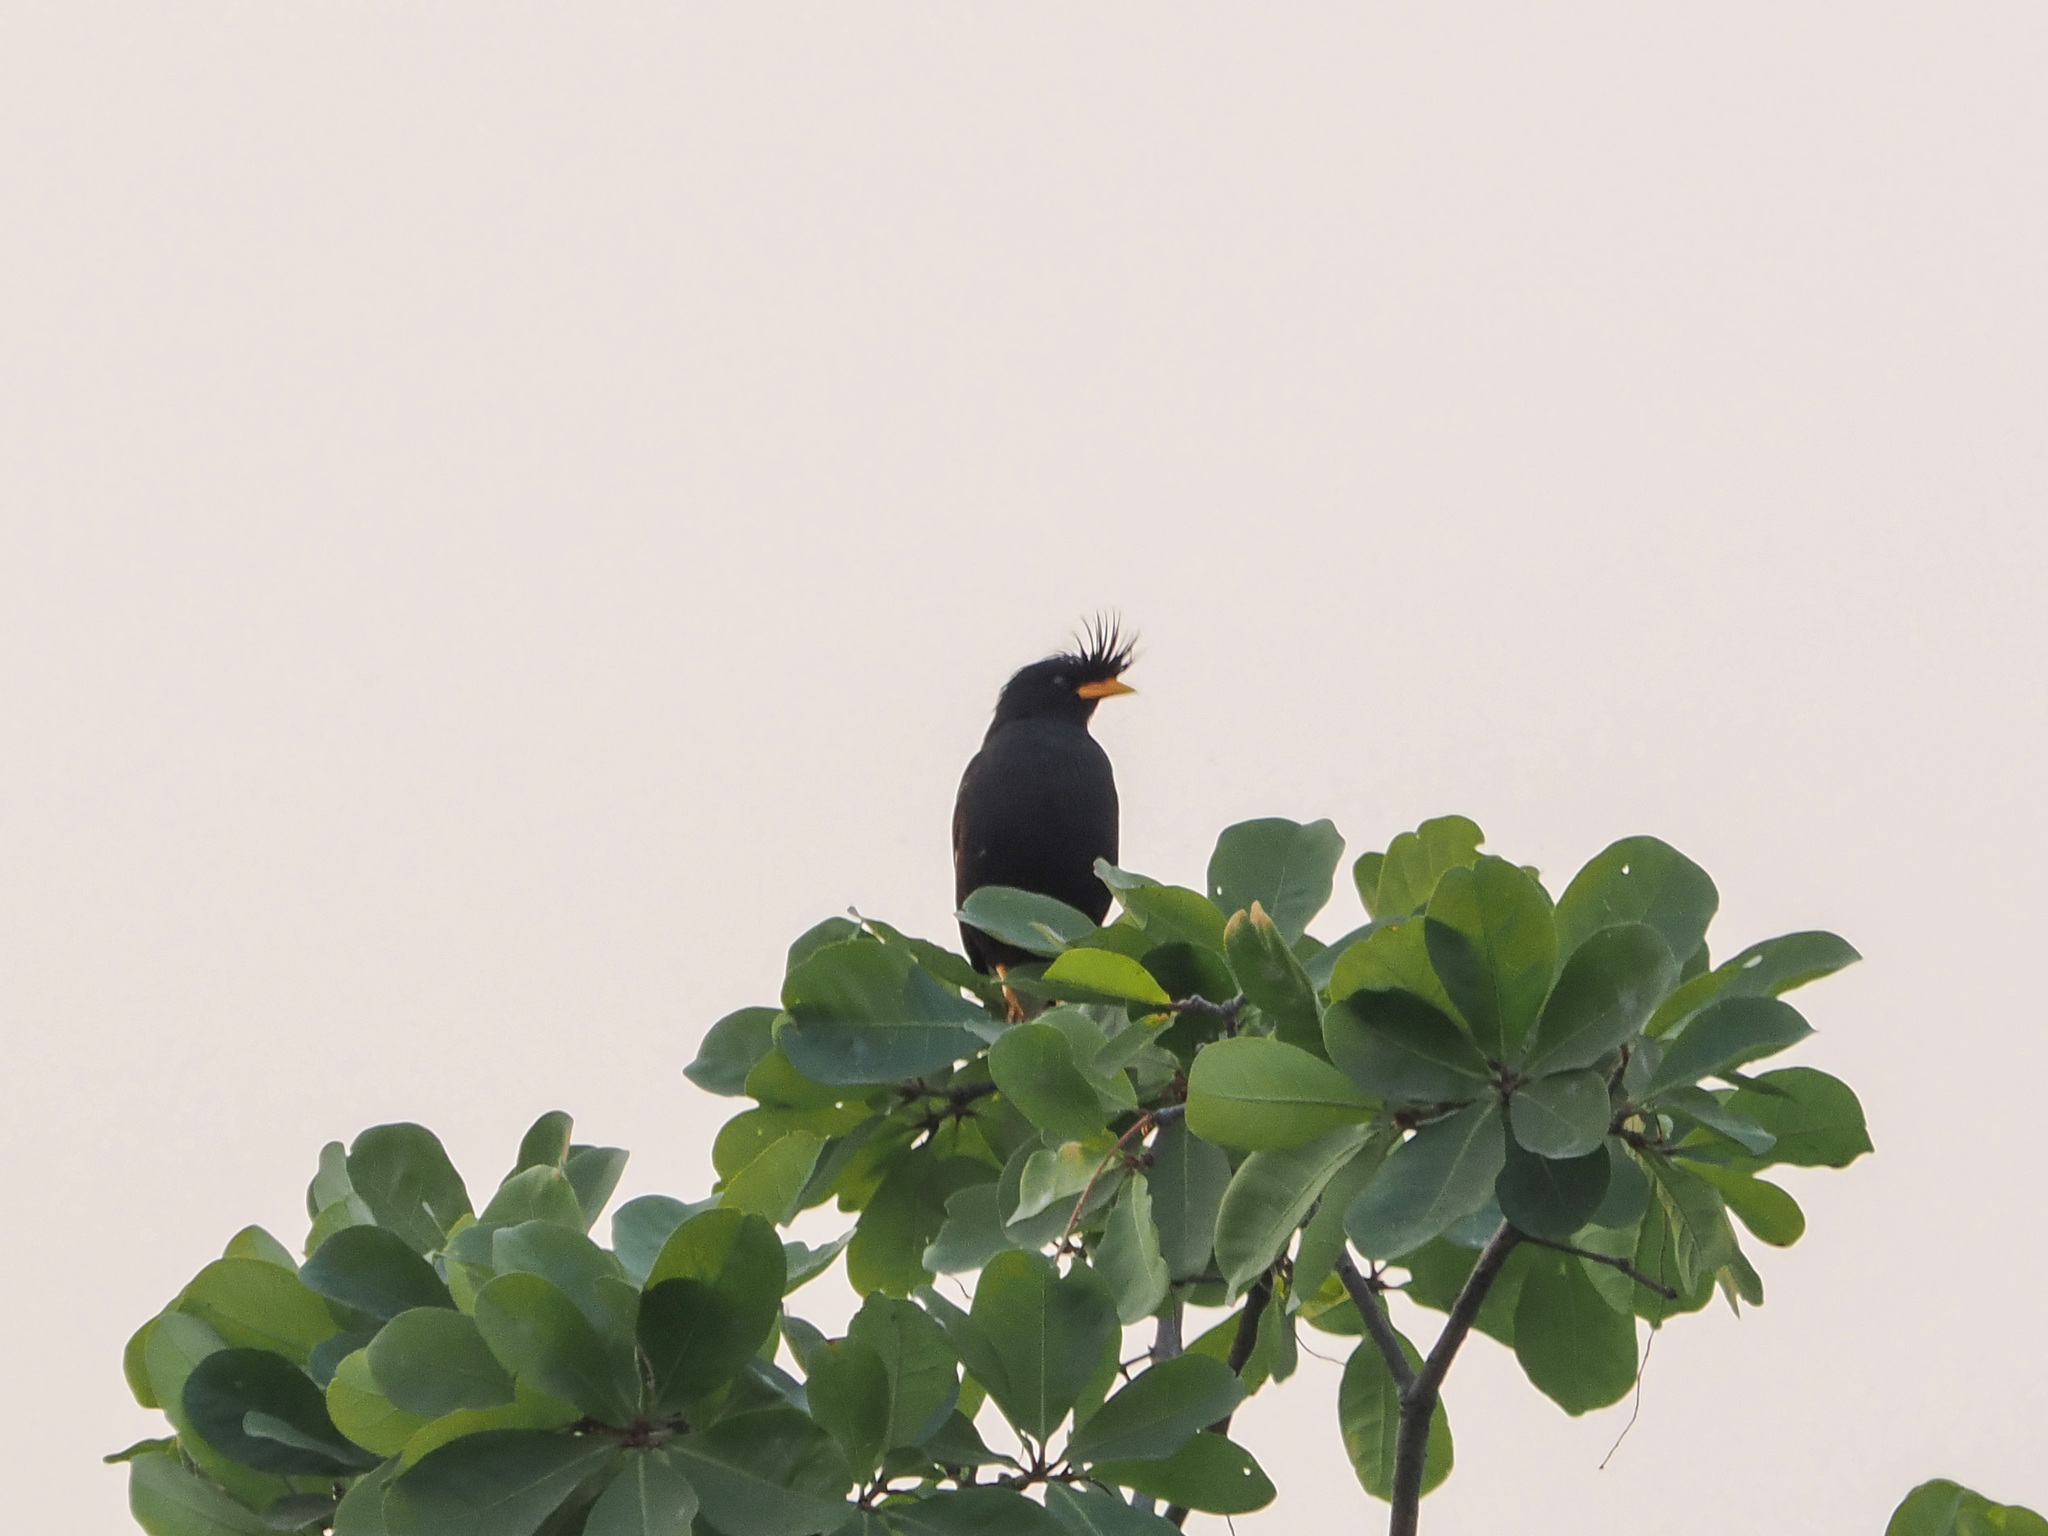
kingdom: Animalia
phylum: Chordata
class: Aves
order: Passeriformes
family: Sturnidae
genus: Acridotheres
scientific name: Acridotheres grandis
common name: Great myna
